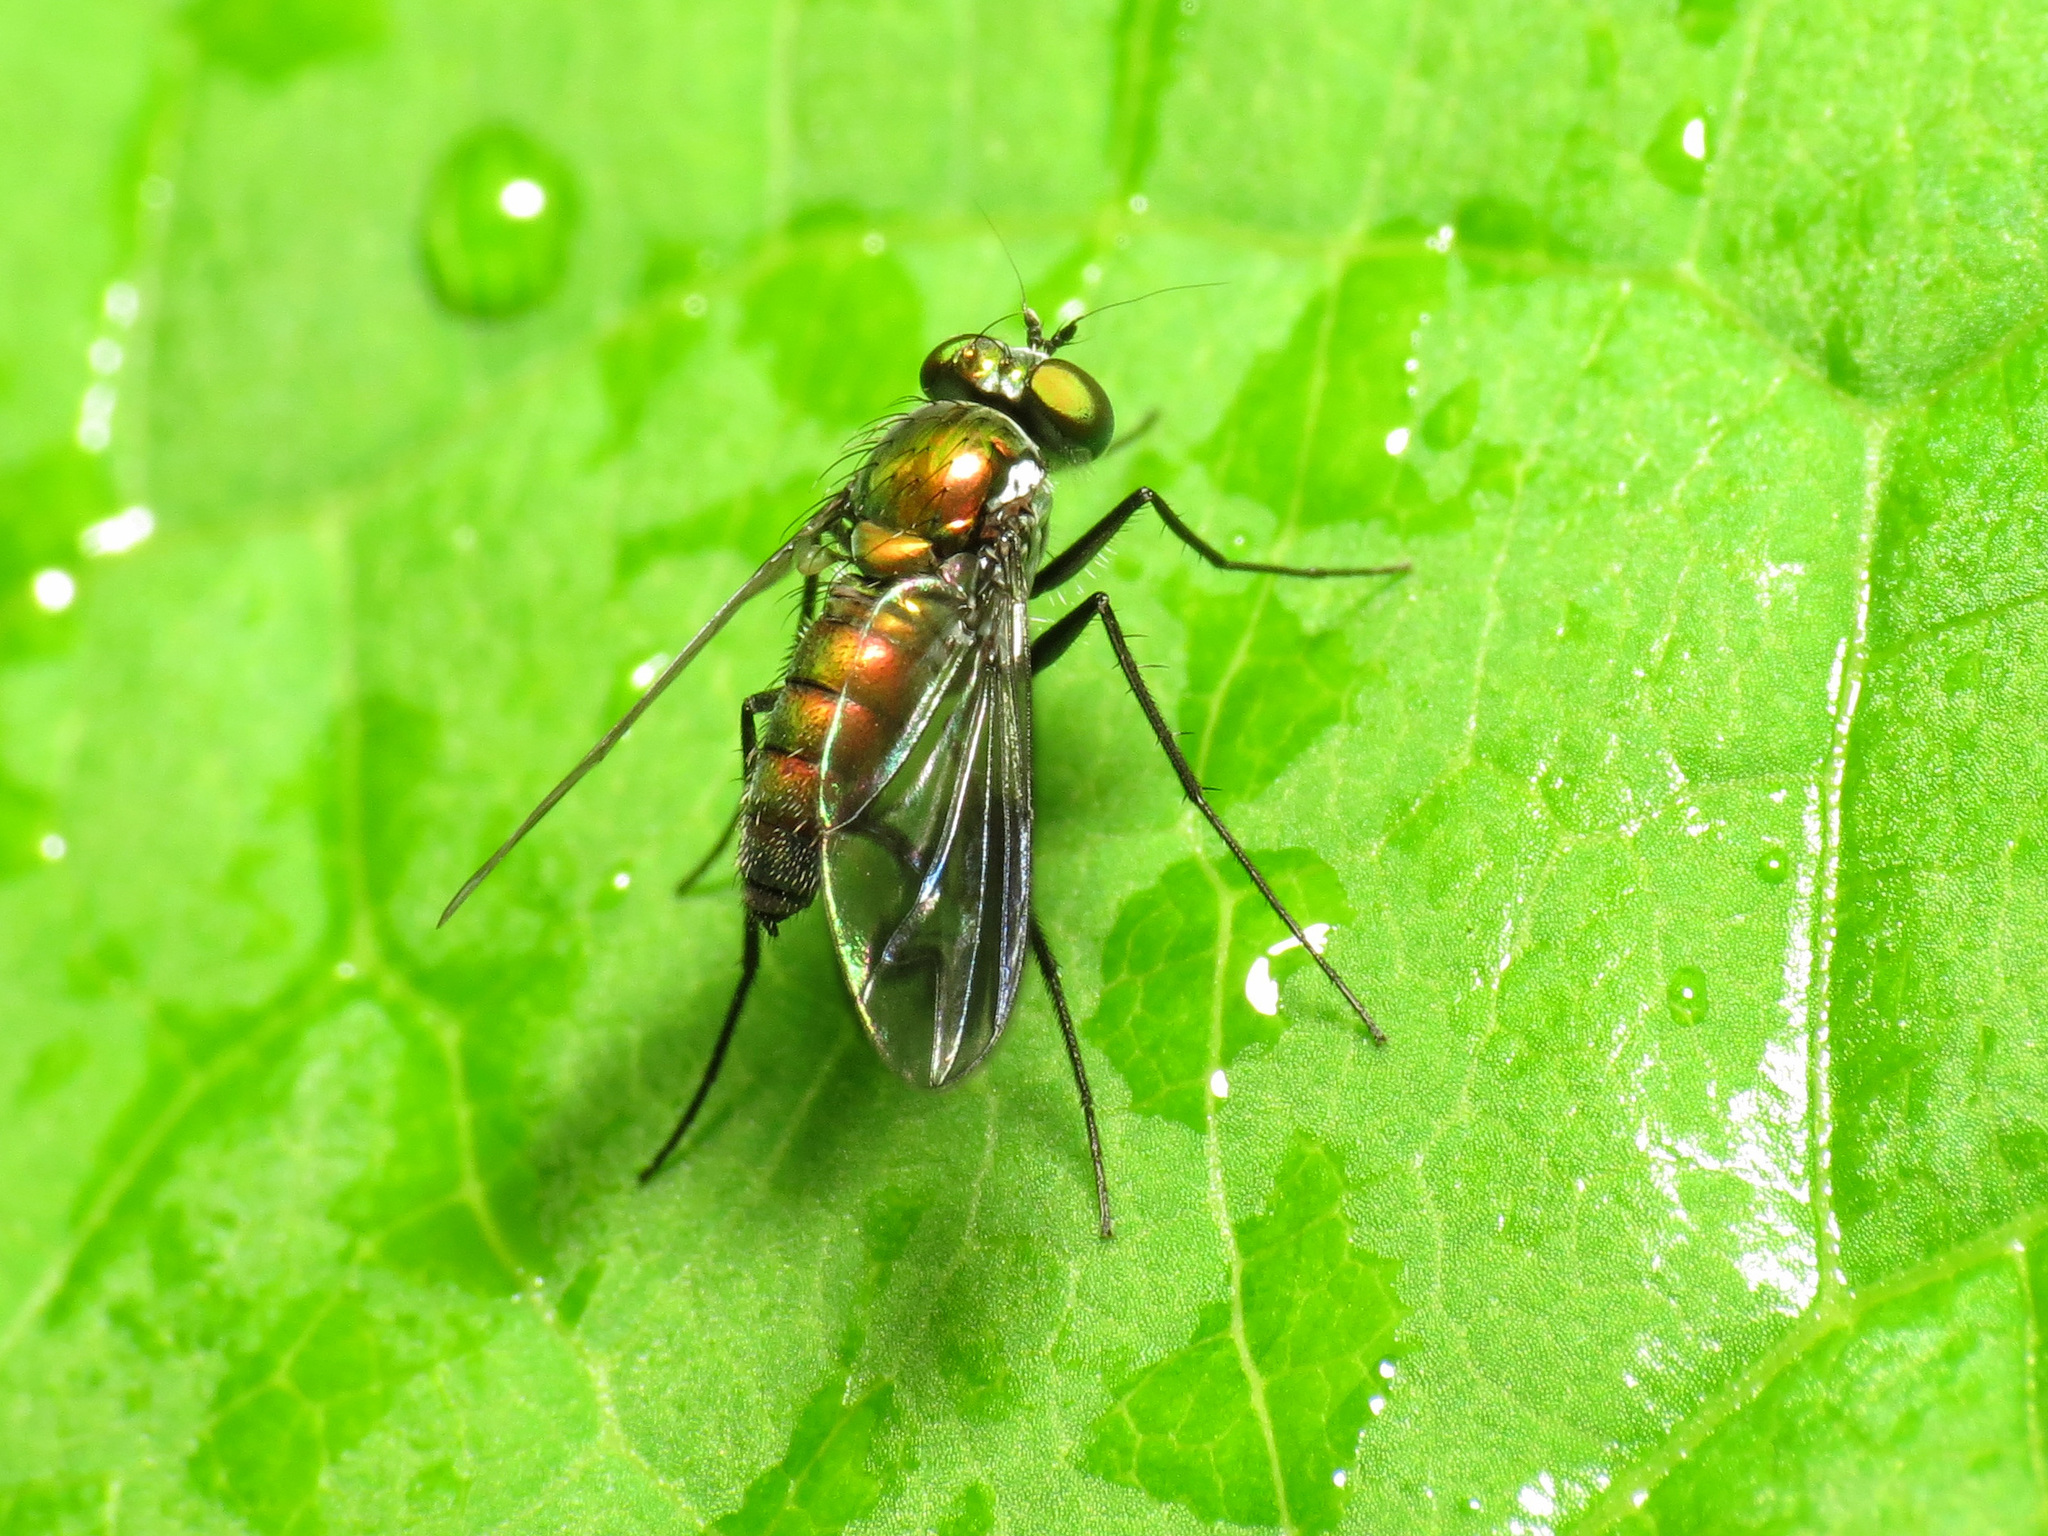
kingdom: Animalia
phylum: Arthropoda
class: Insecta
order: Diptera
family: Dolichopodidae
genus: Condylostylus
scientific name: Condylostylus patibulatus
